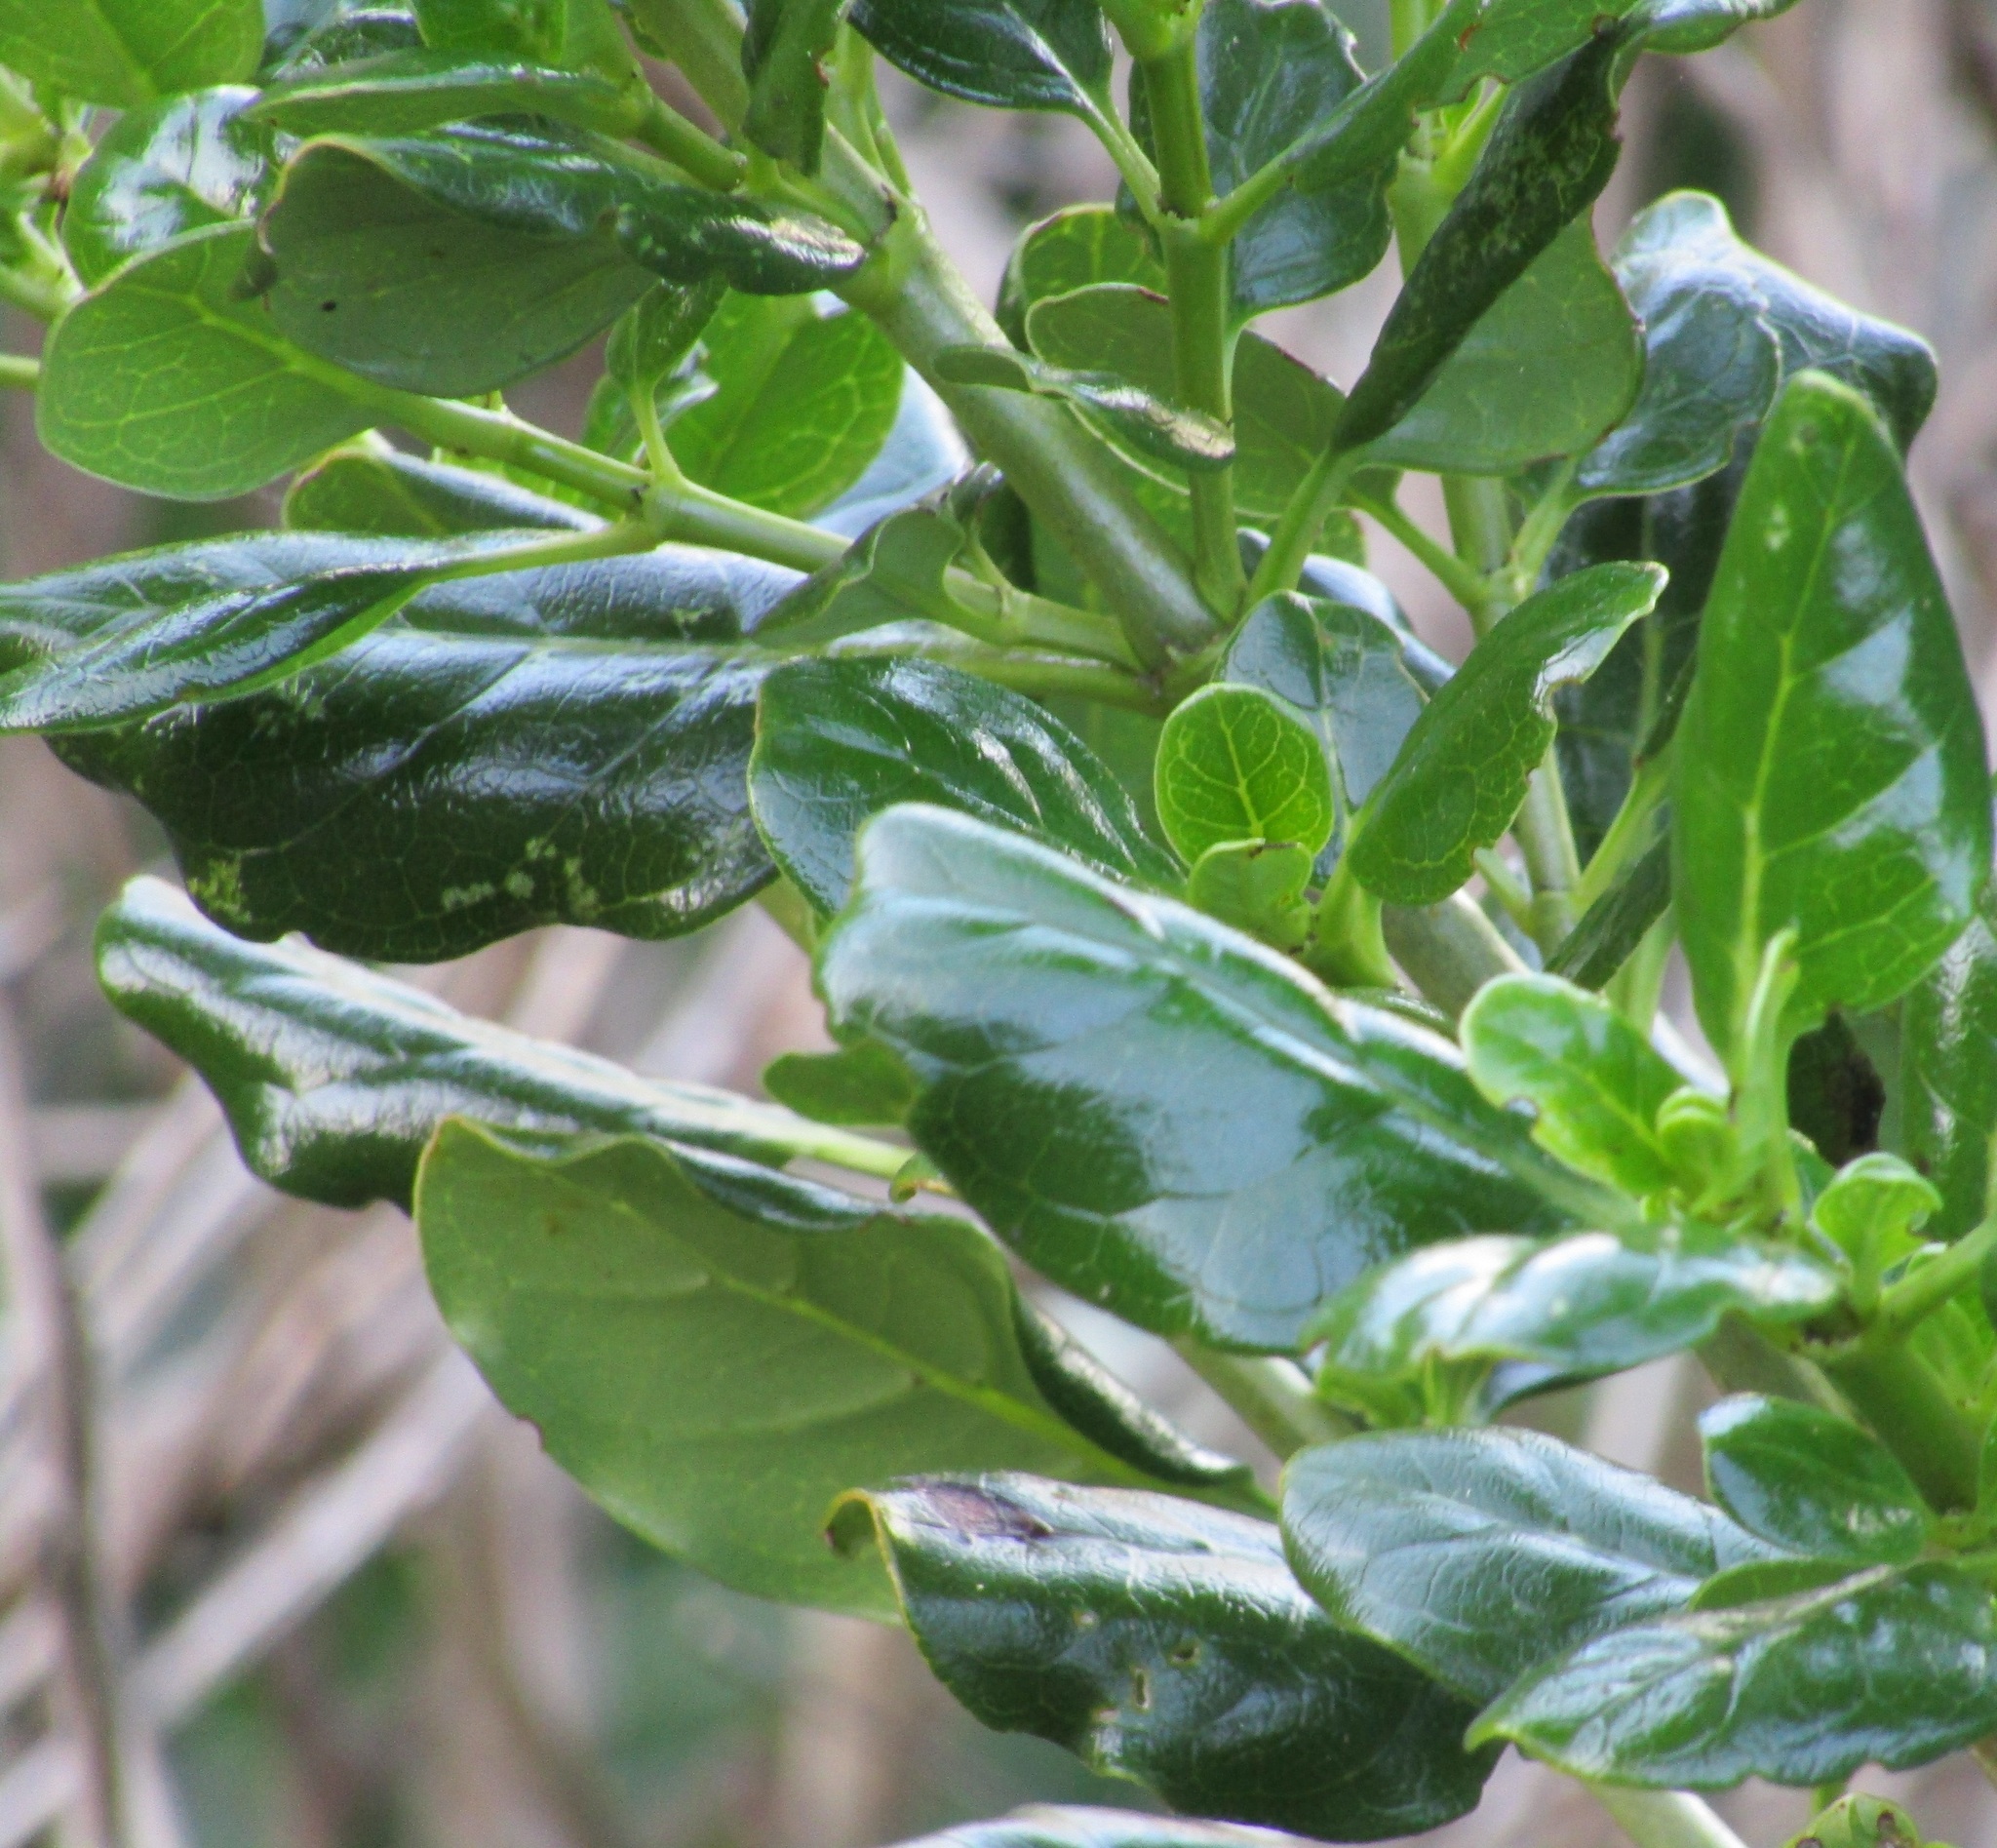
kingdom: Plantae
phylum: Tracheophyta
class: Magnoliopsida
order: Gentianales
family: Rubiaceae
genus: Coprosma
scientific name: Coprosma repens
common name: Tree bedstraw
